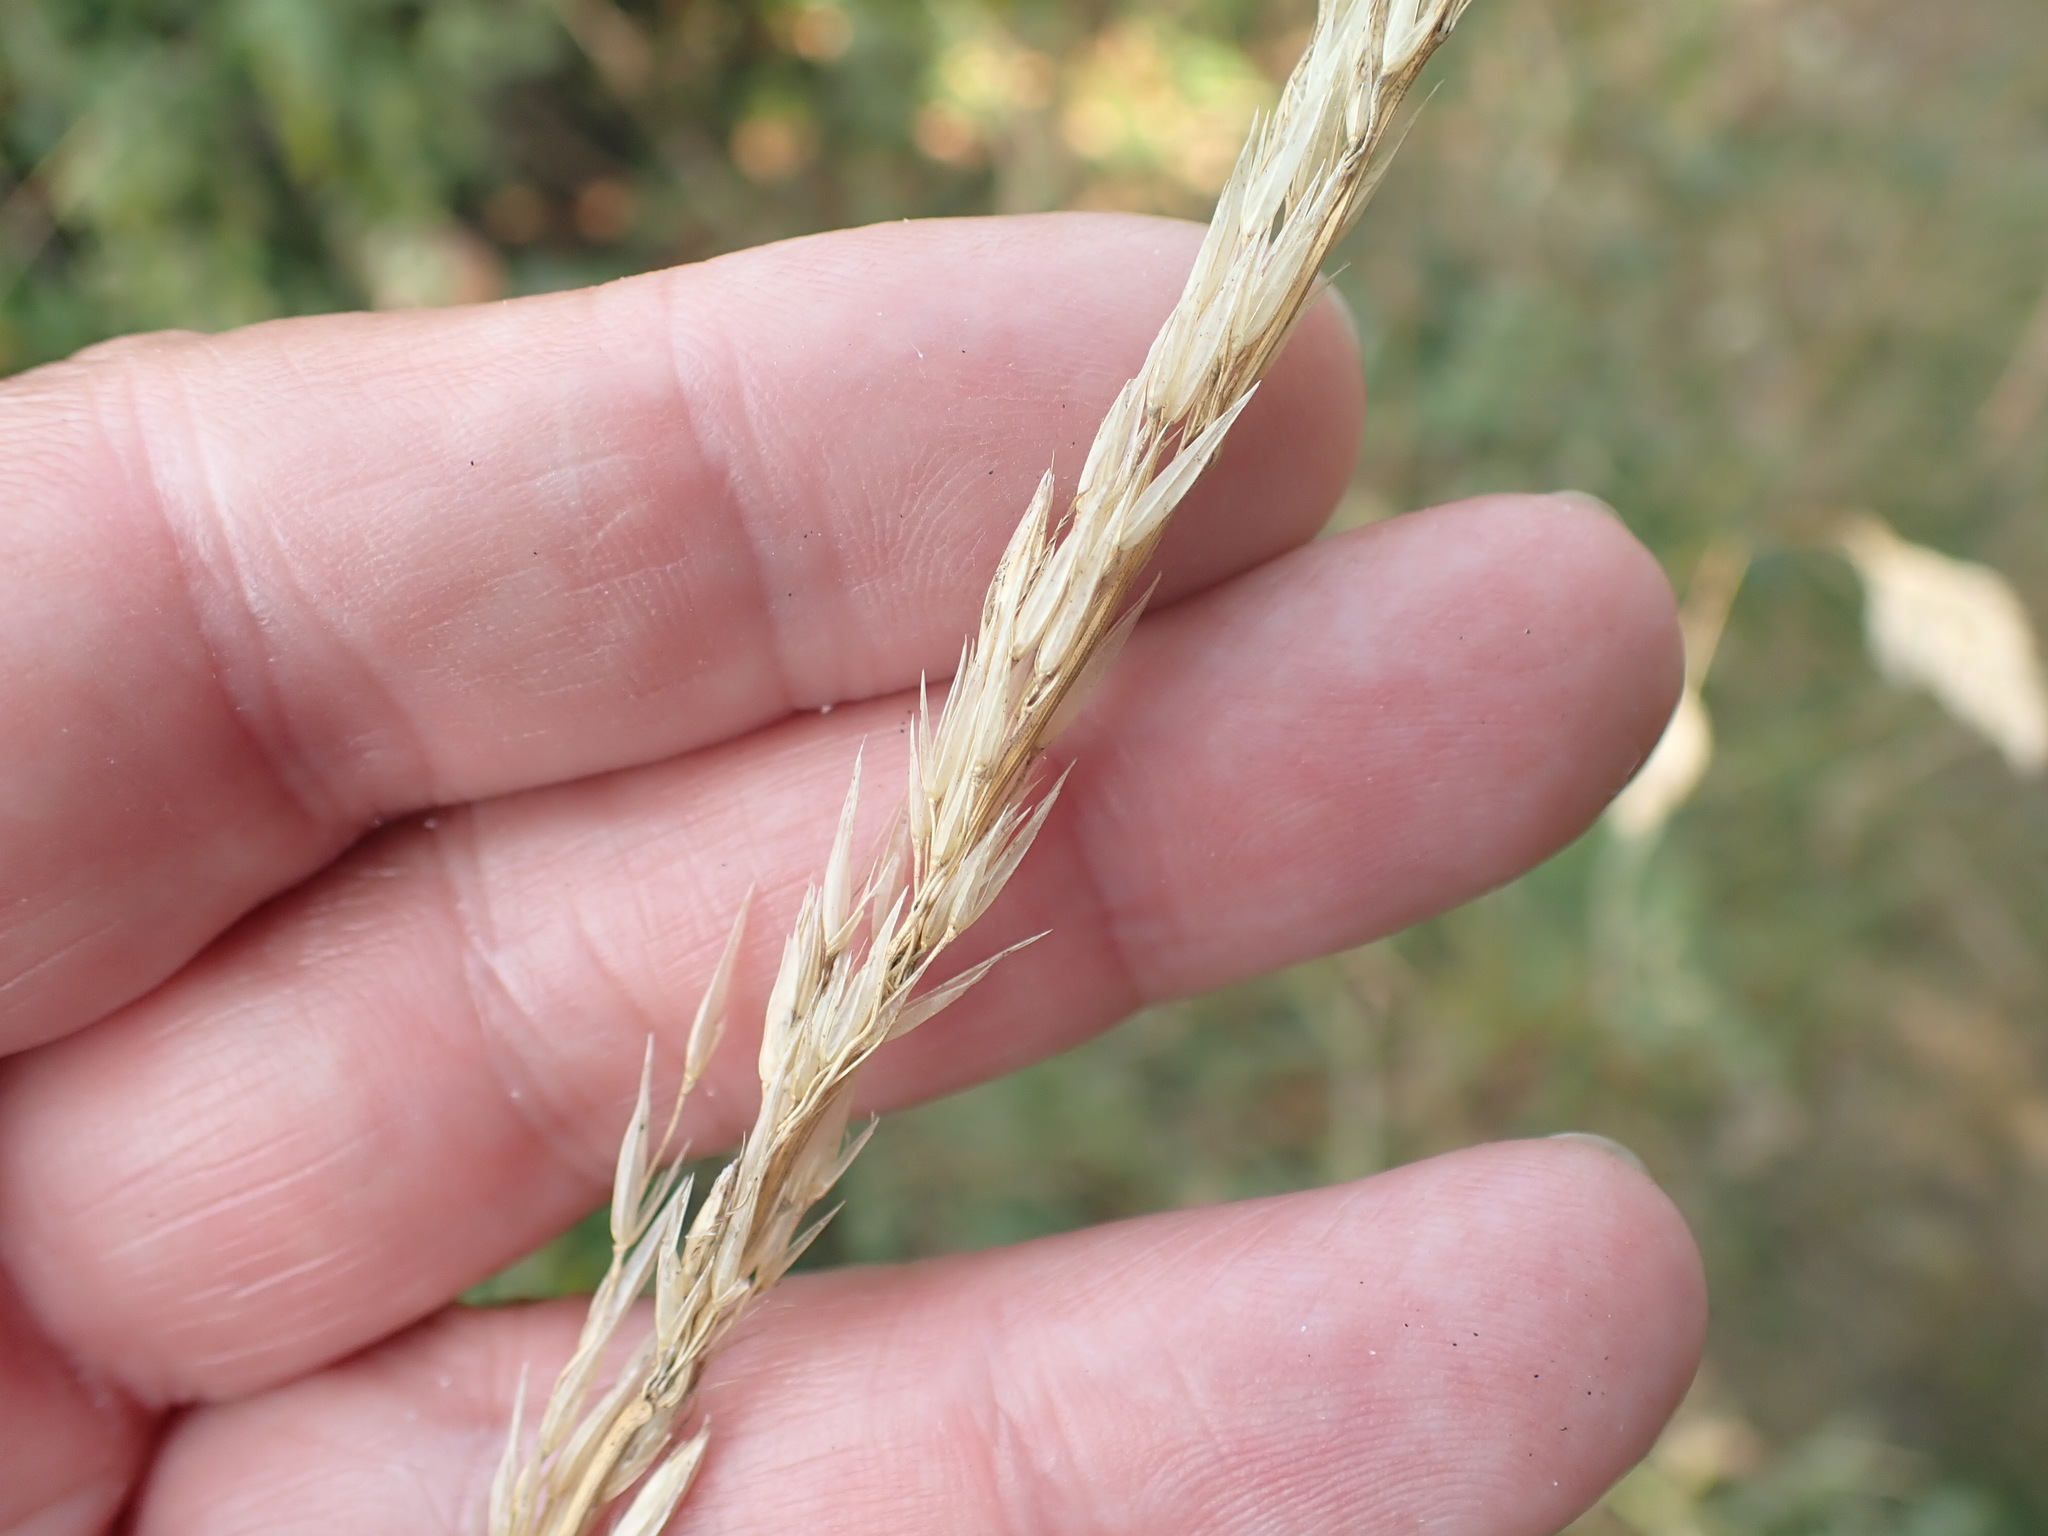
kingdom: Plantae
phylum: Tracheophyta
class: Liliopsida
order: Poales
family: Poaceae
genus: Arrhenatherum
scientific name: Arrhenatherum elatius
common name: Tall oatgrass
